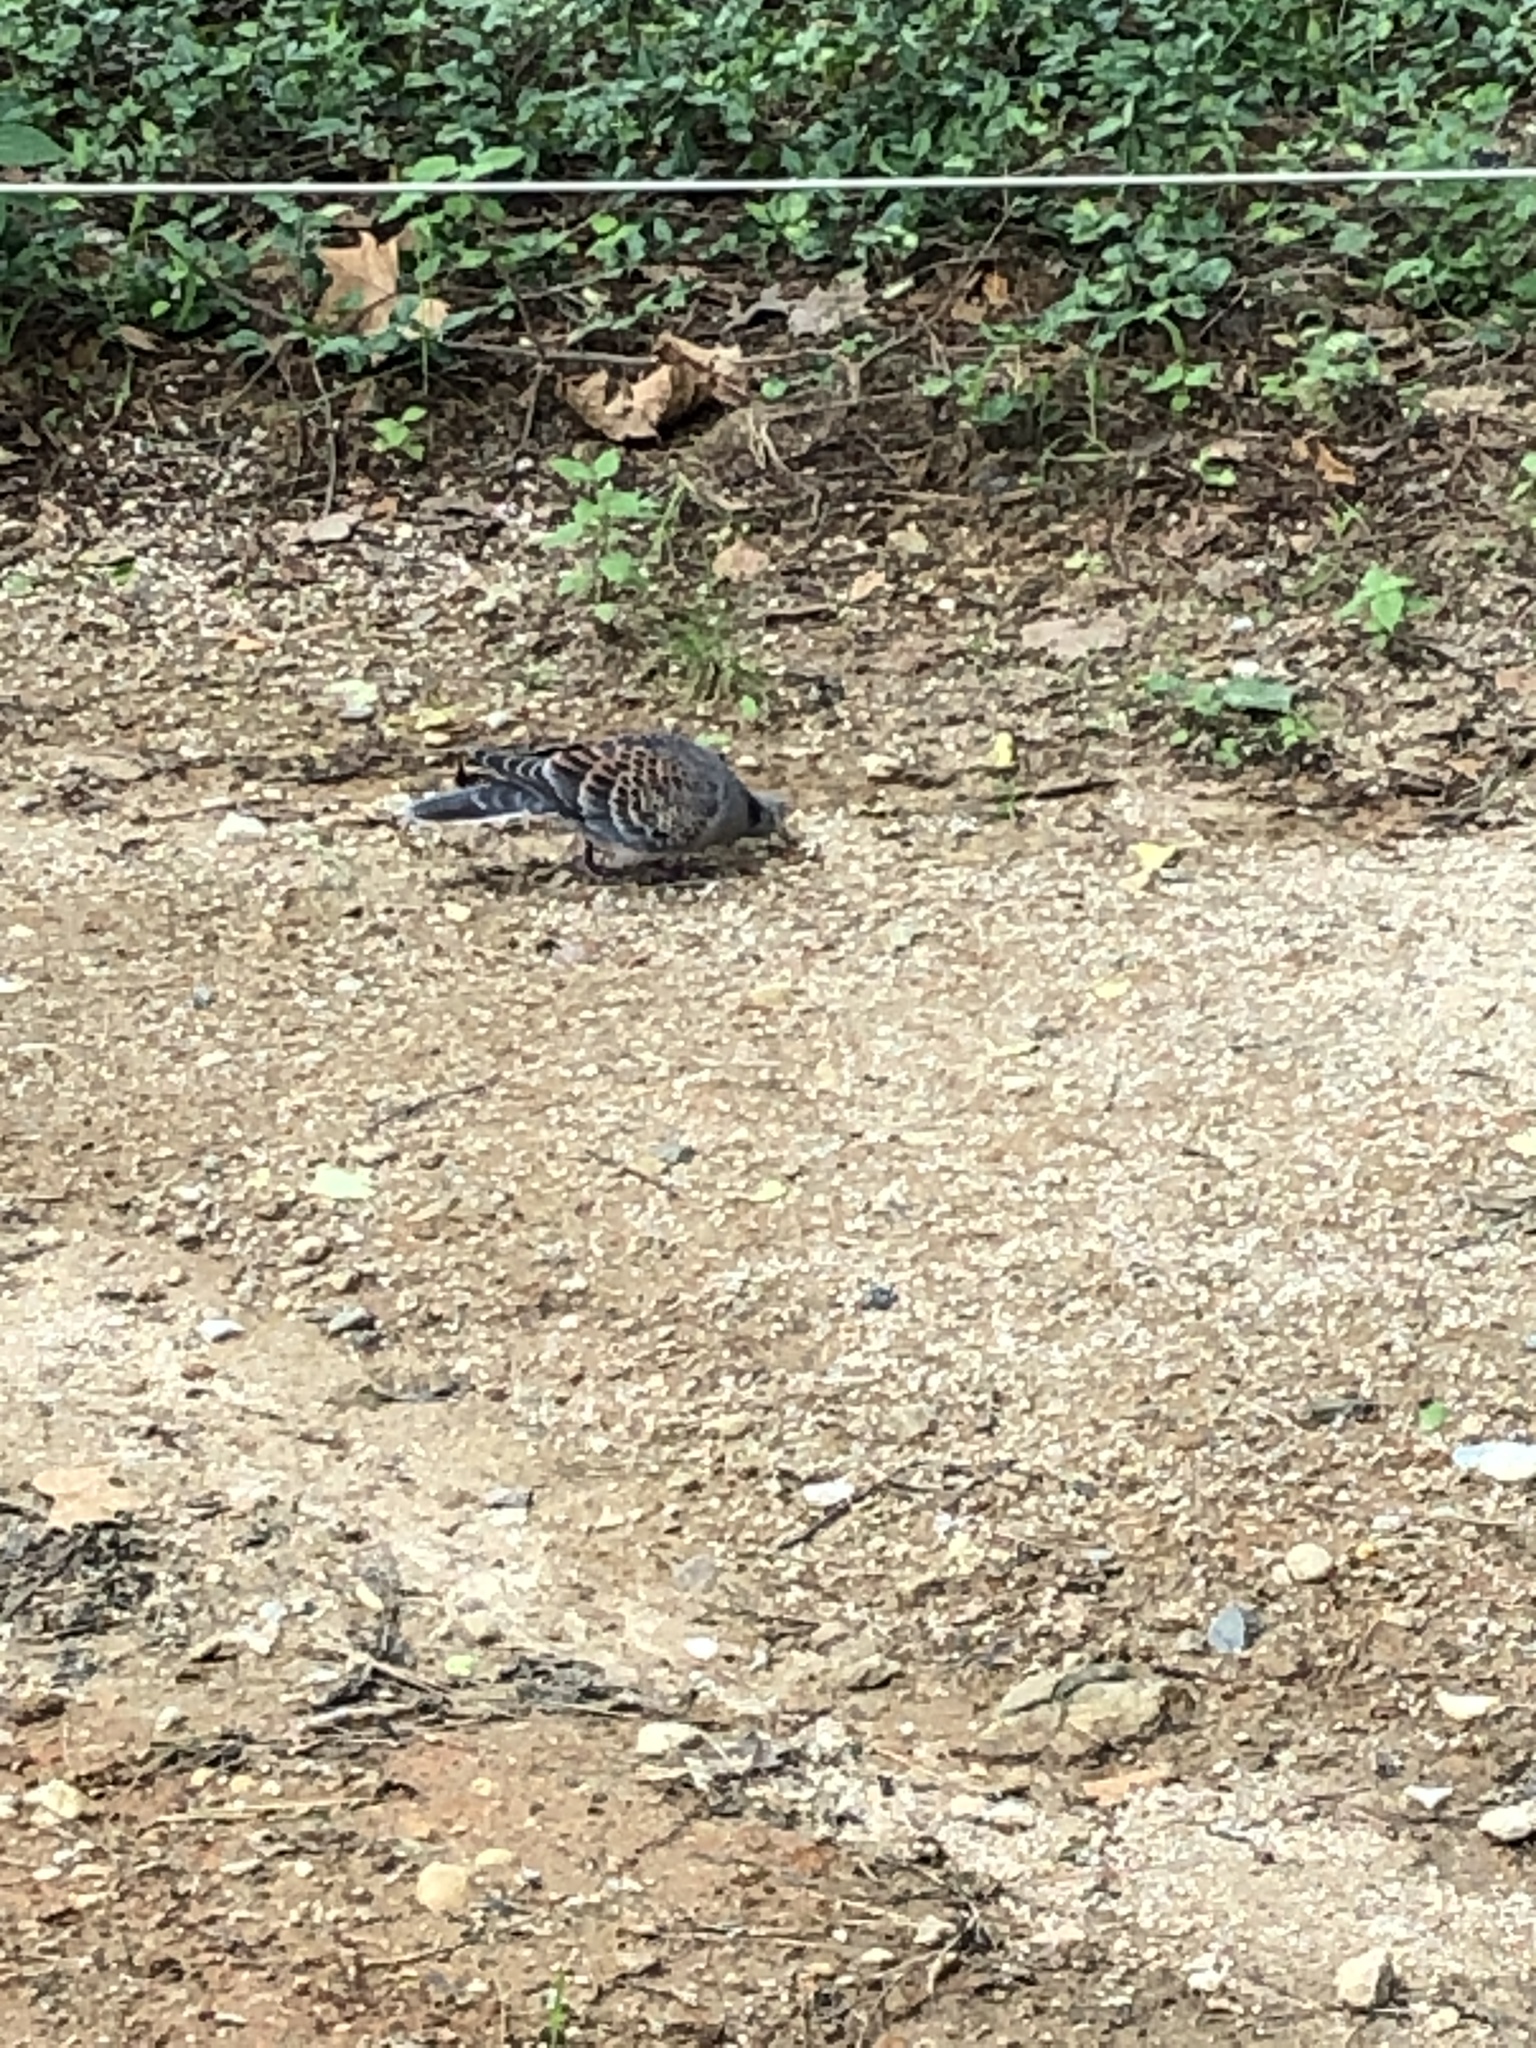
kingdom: Animalia
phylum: Chordata
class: Aves
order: Columbiformes
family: Columbidae
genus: Streptopelia
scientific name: Streptopelia orientalis
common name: Oriental turtle dove
